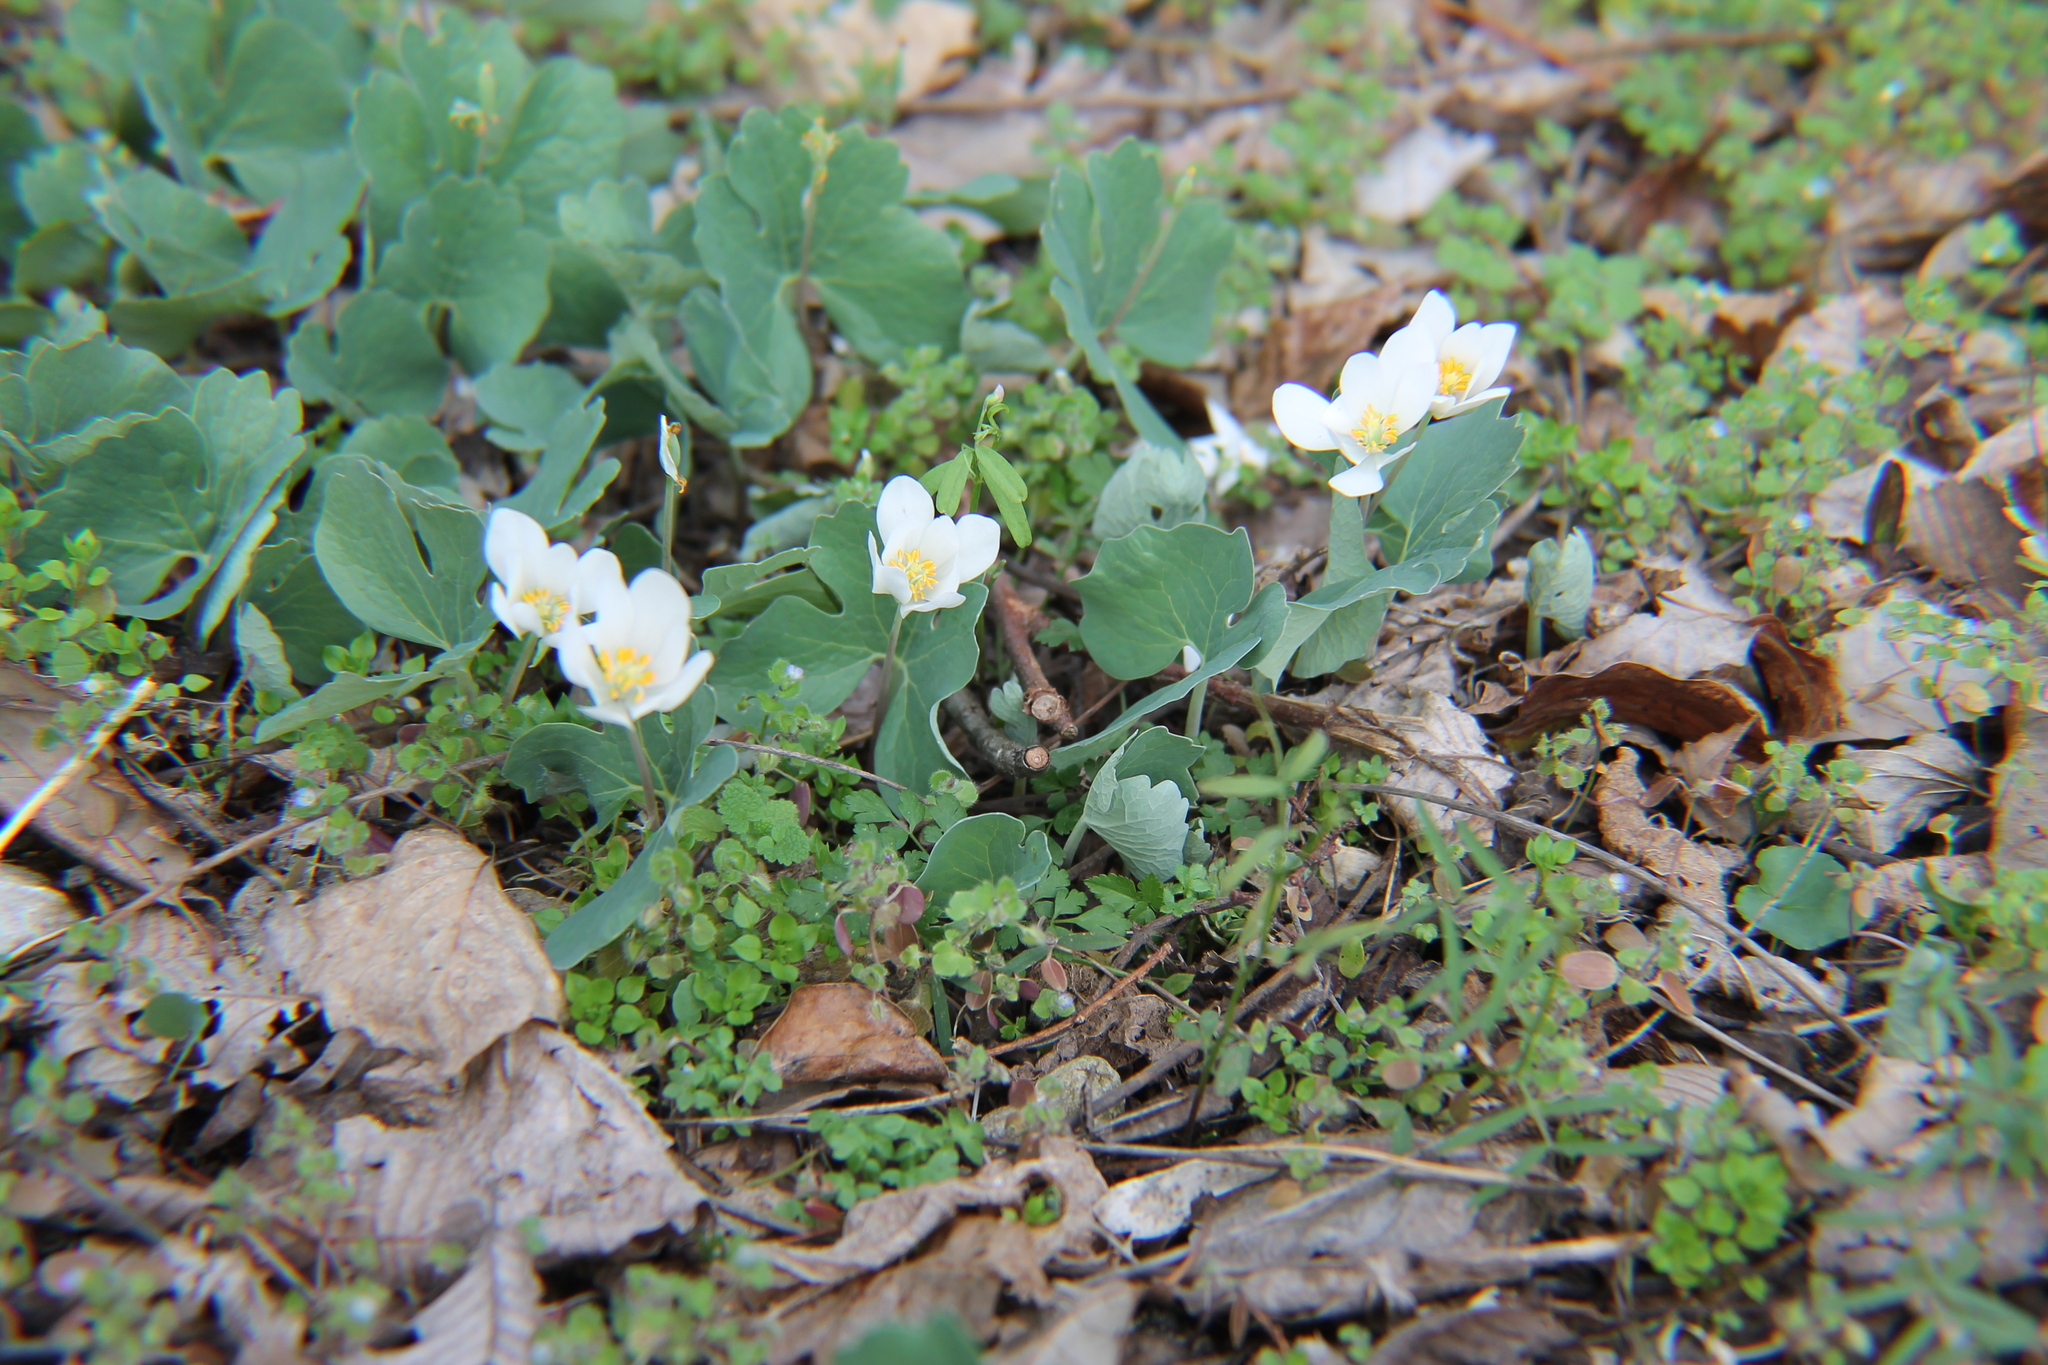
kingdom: Plantae
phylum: Tracheophyta
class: Magnoliopsida
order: Ranunculales
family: Papaveraceae
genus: Sanguinaria
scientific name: Sanguinaria canadensis
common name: Bloodroot
